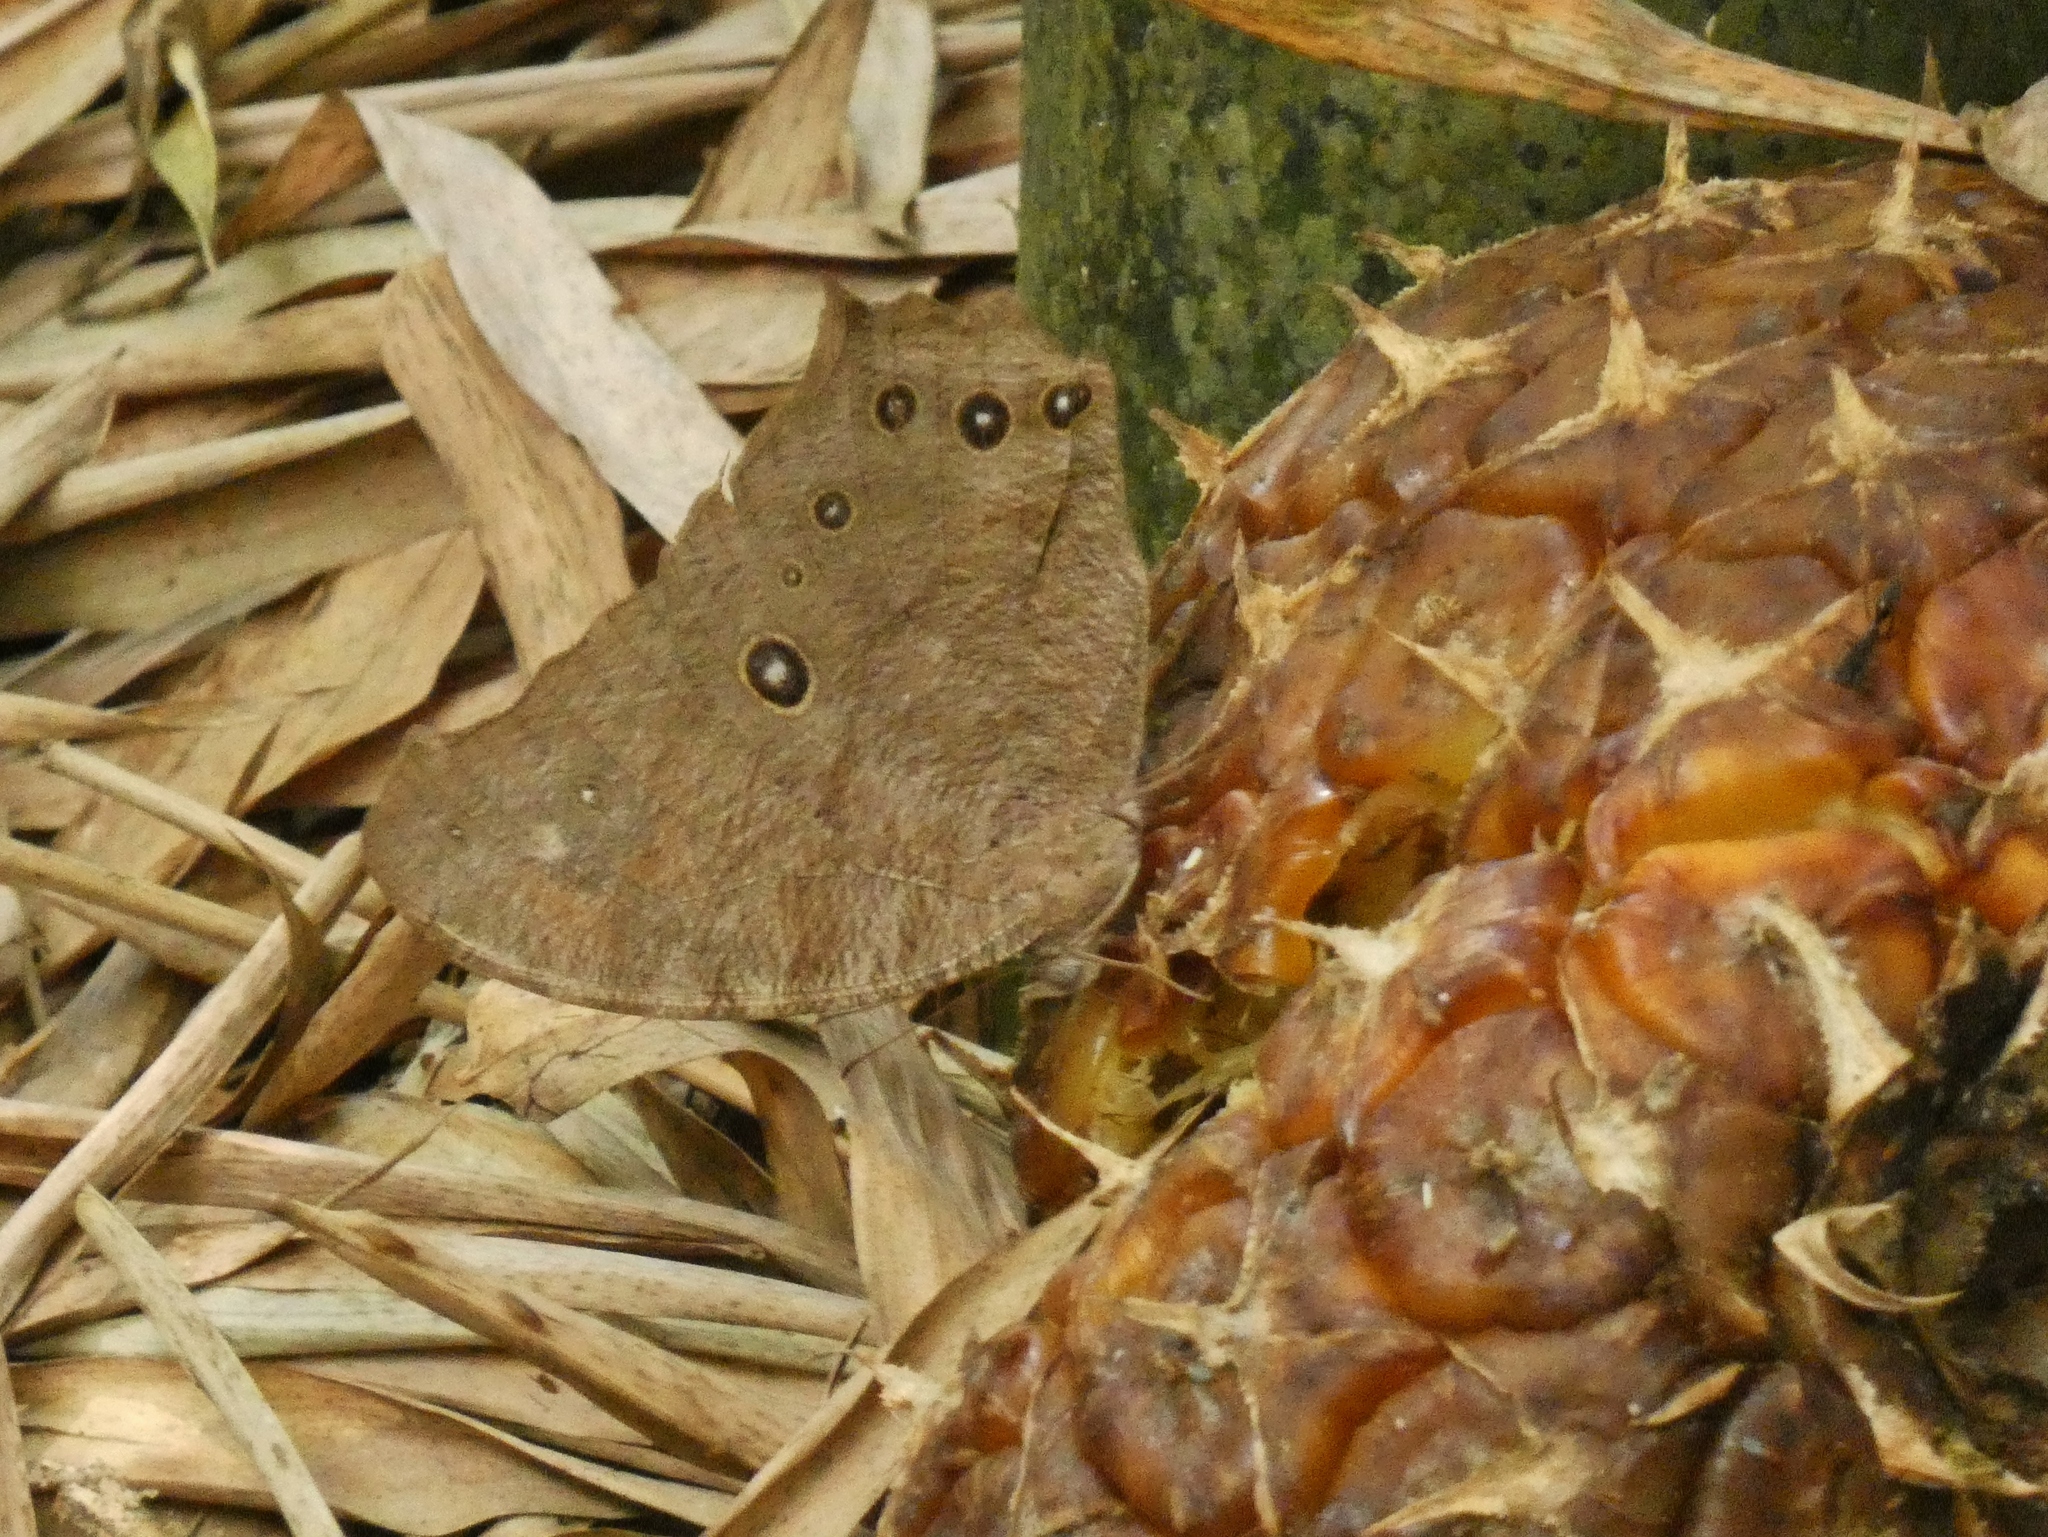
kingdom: Animalia
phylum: Arthropoda
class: Insecta
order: Lepidoptera
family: Nymphalidae
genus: Melanitis
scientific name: Melanitis leda
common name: Twilight brown
